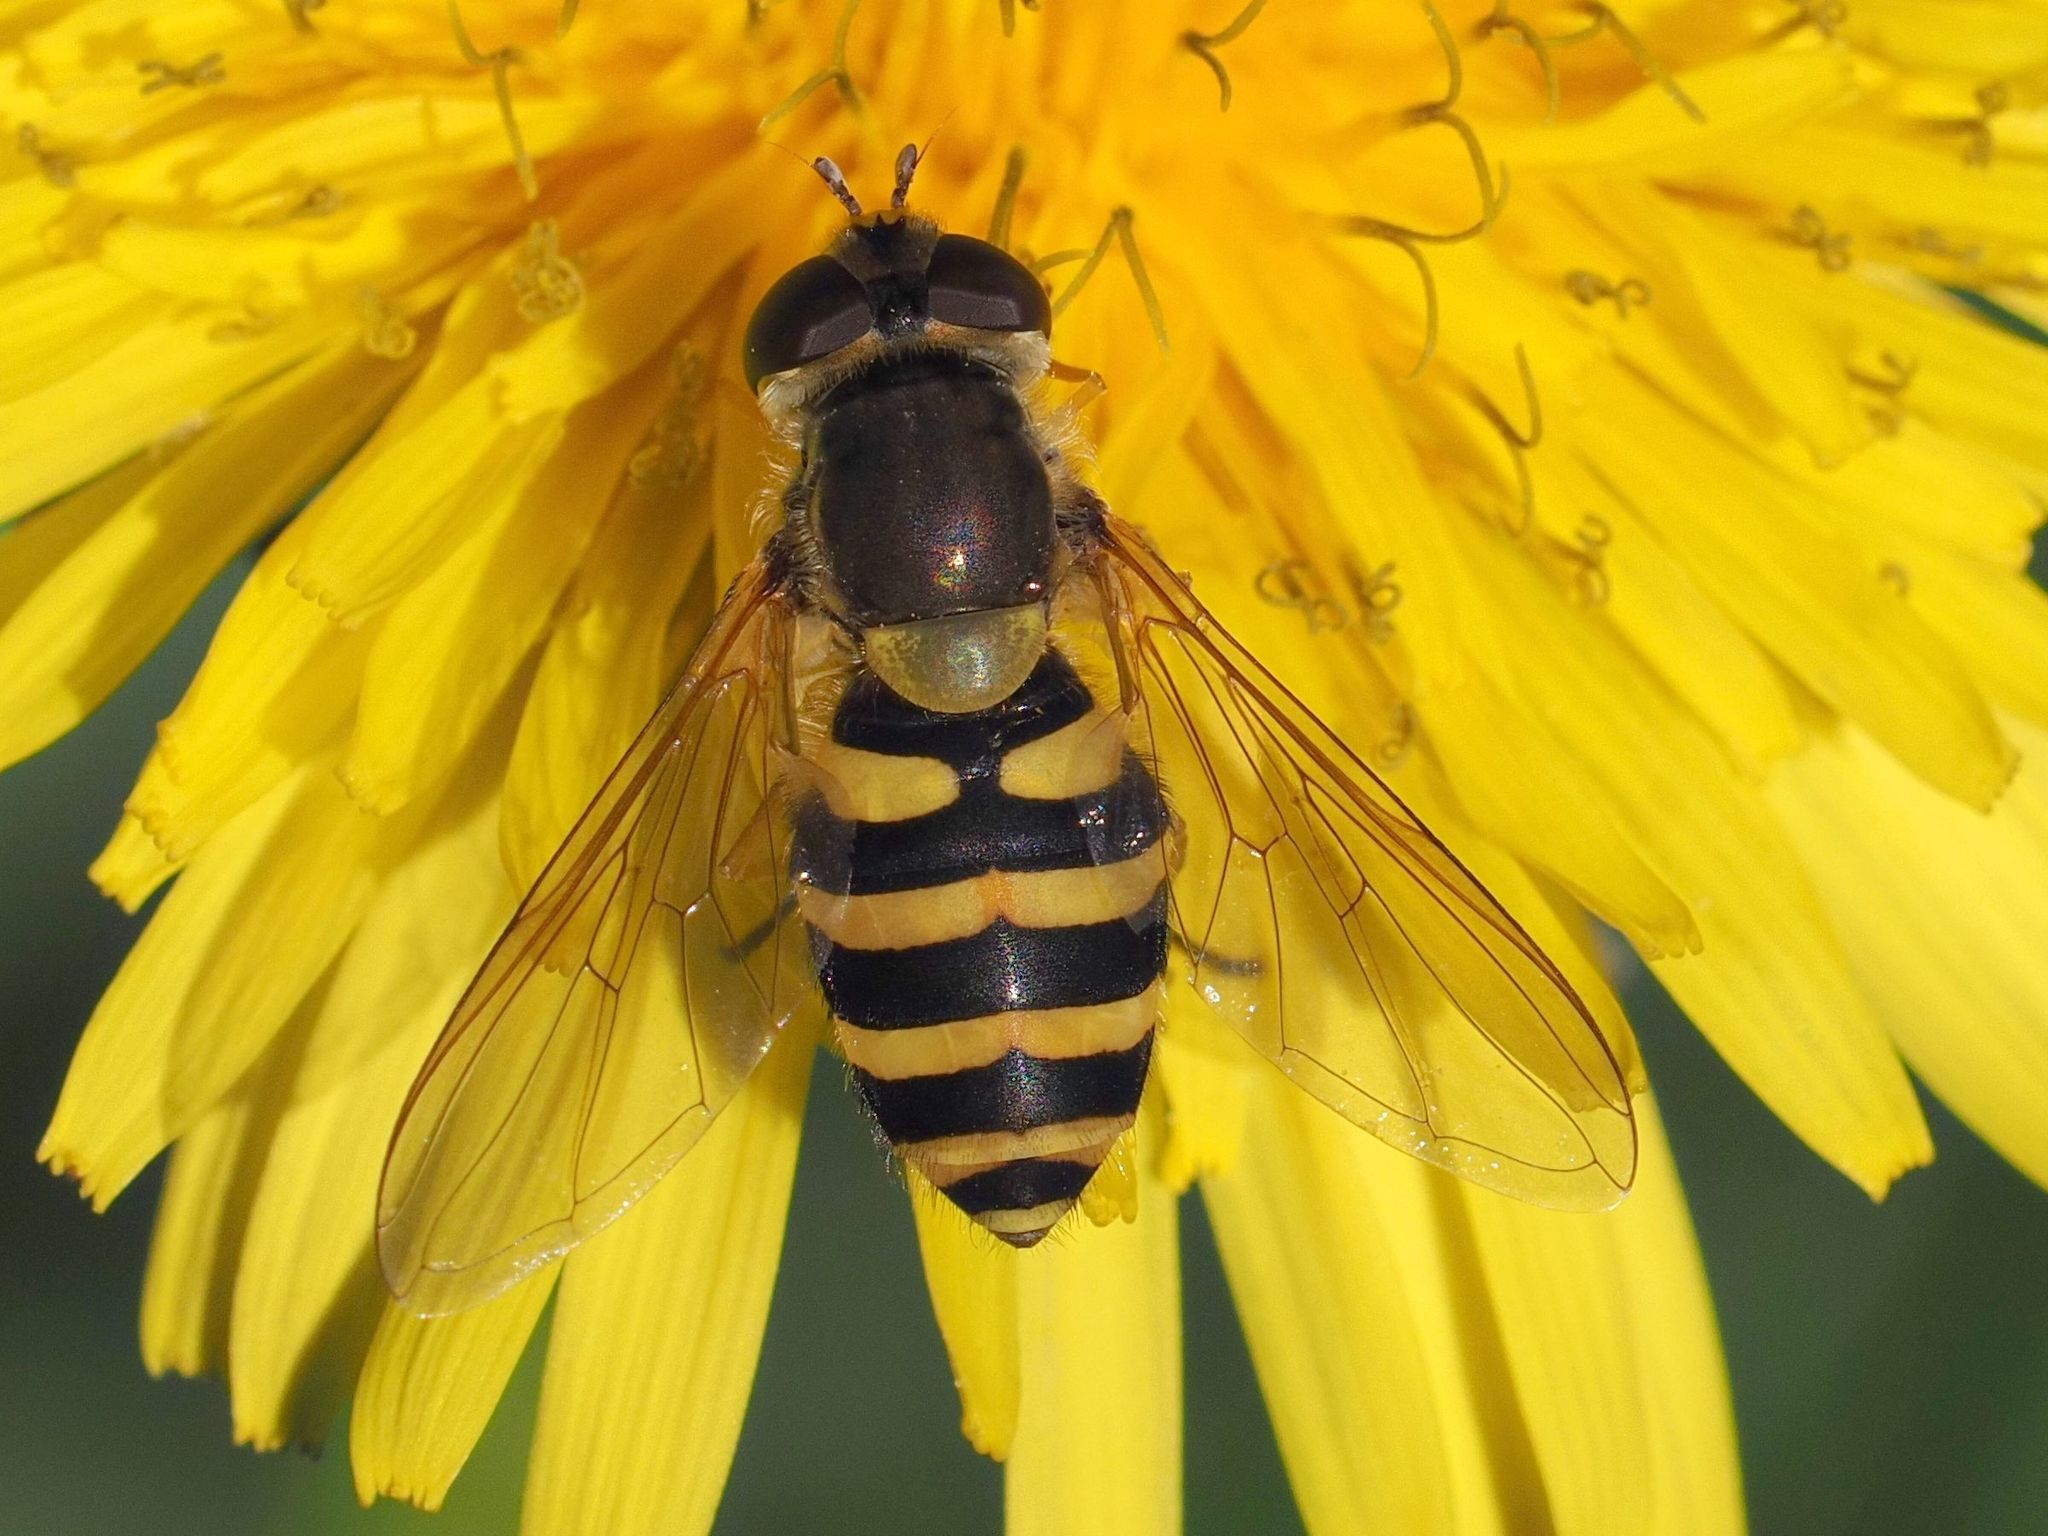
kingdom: Animalia
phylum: Arthropoda
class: Insecta
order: Diptera
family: Syrphidae
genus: Syrphus
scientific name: Syrphus
